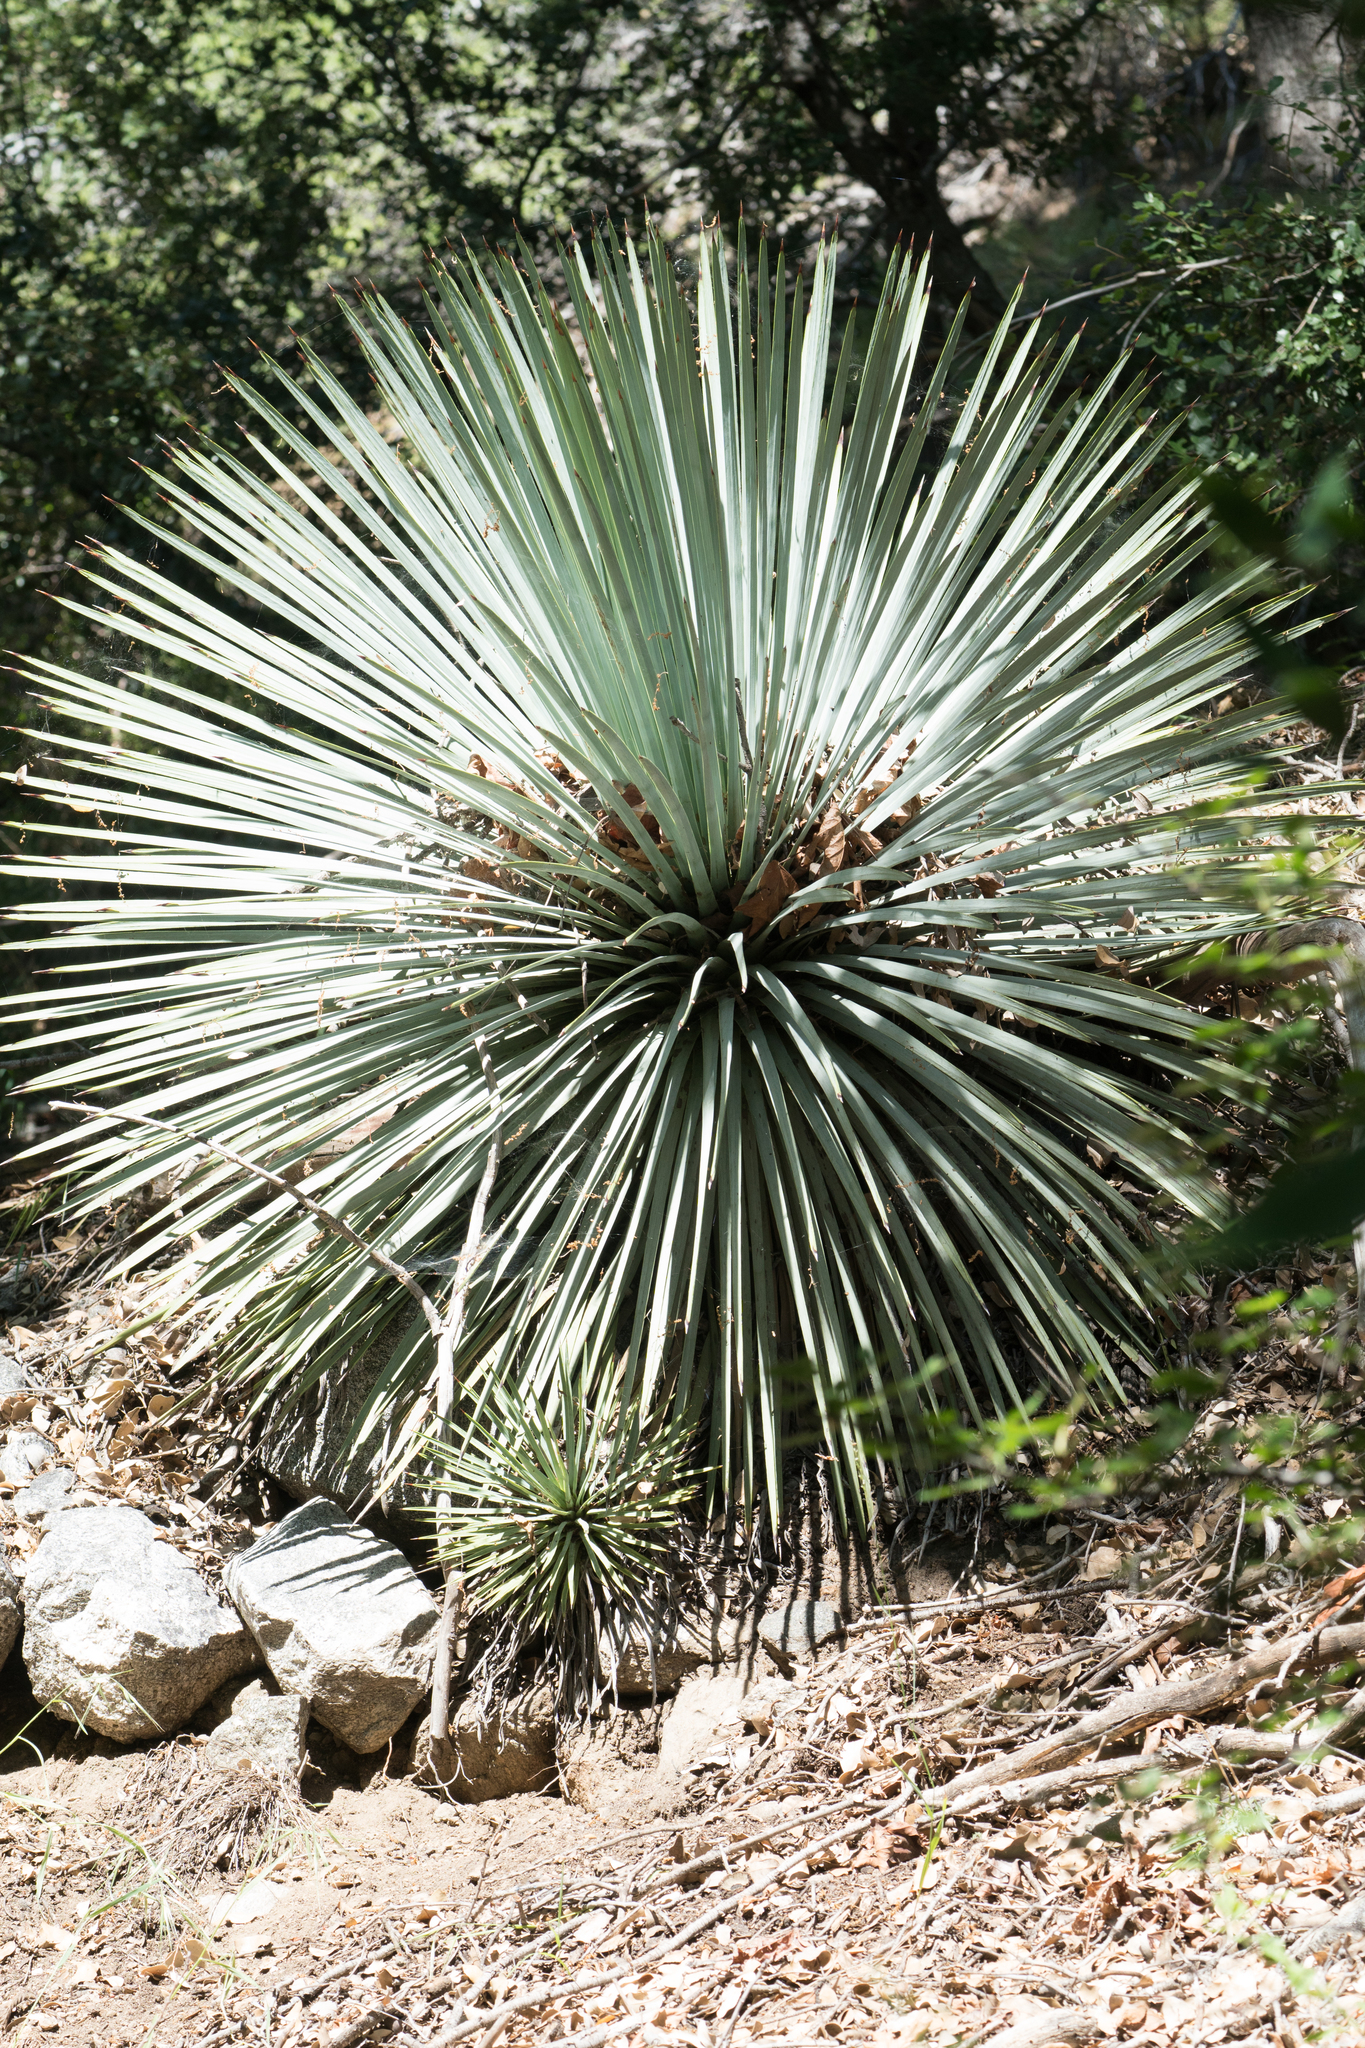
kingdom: Plantae
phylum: Tracheophyta
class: Liliopsida
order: Asparagales
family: Asparagaceae
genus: Hesperoyucca
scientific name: Hesperoyucca whipplei
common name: Our lord's-candle
